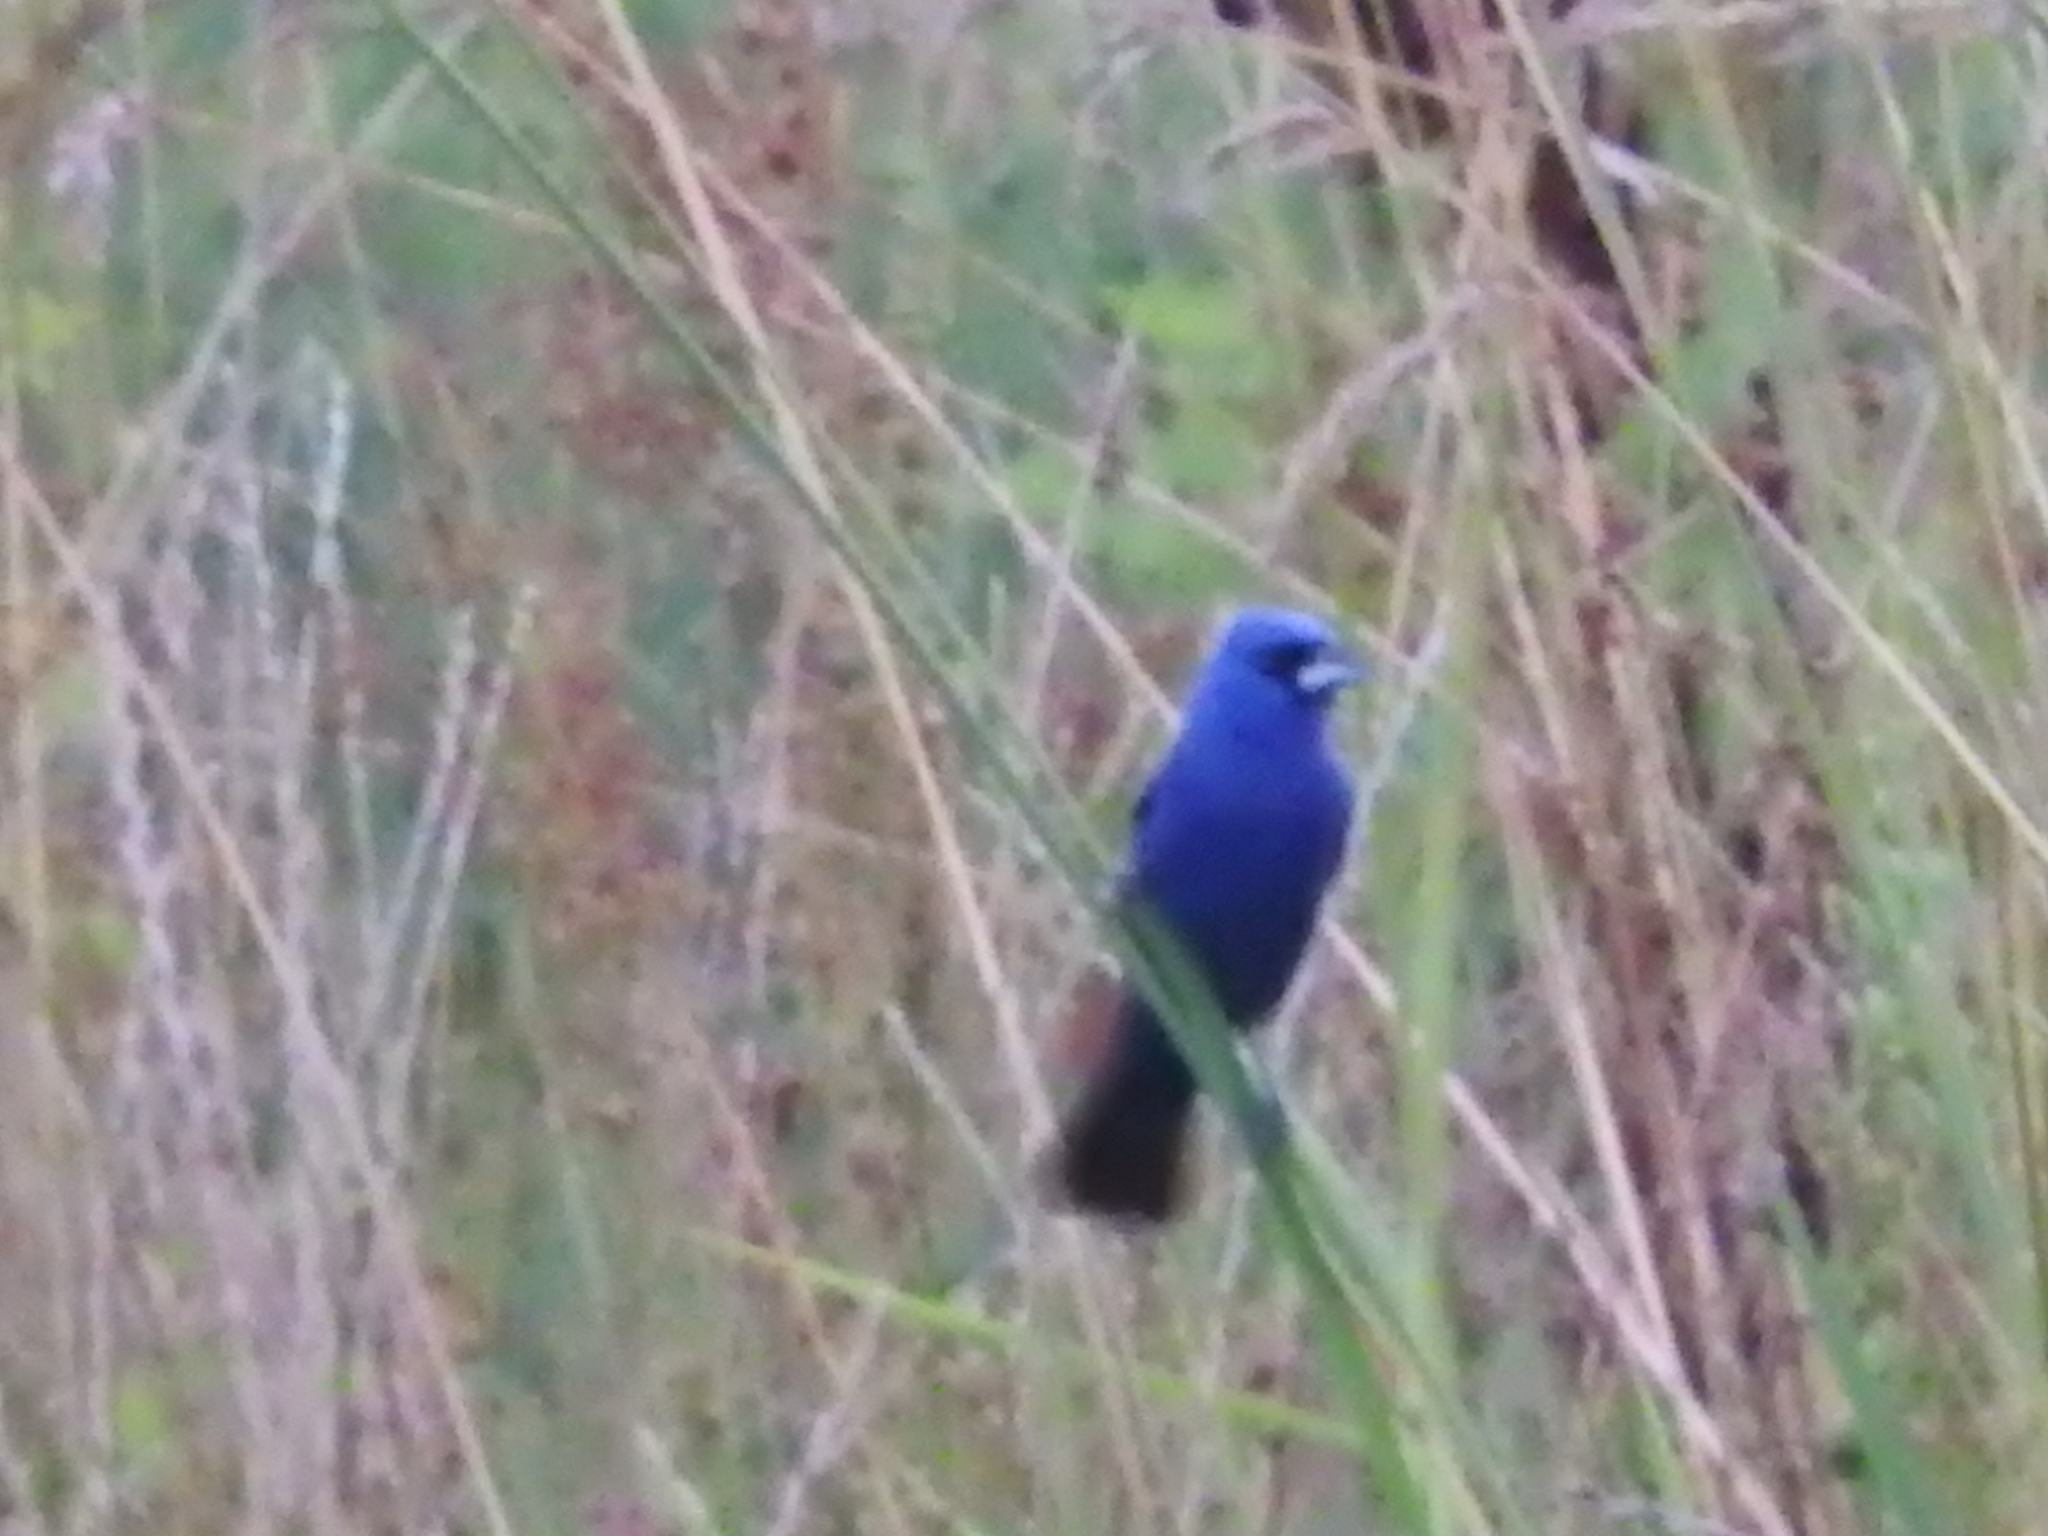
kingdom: Animalia
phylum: Chordata
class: Aves
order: Passeriformes
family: Cardinalidae
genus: Passerina
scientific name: Passerina caerulea
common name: Blue grosbeak
